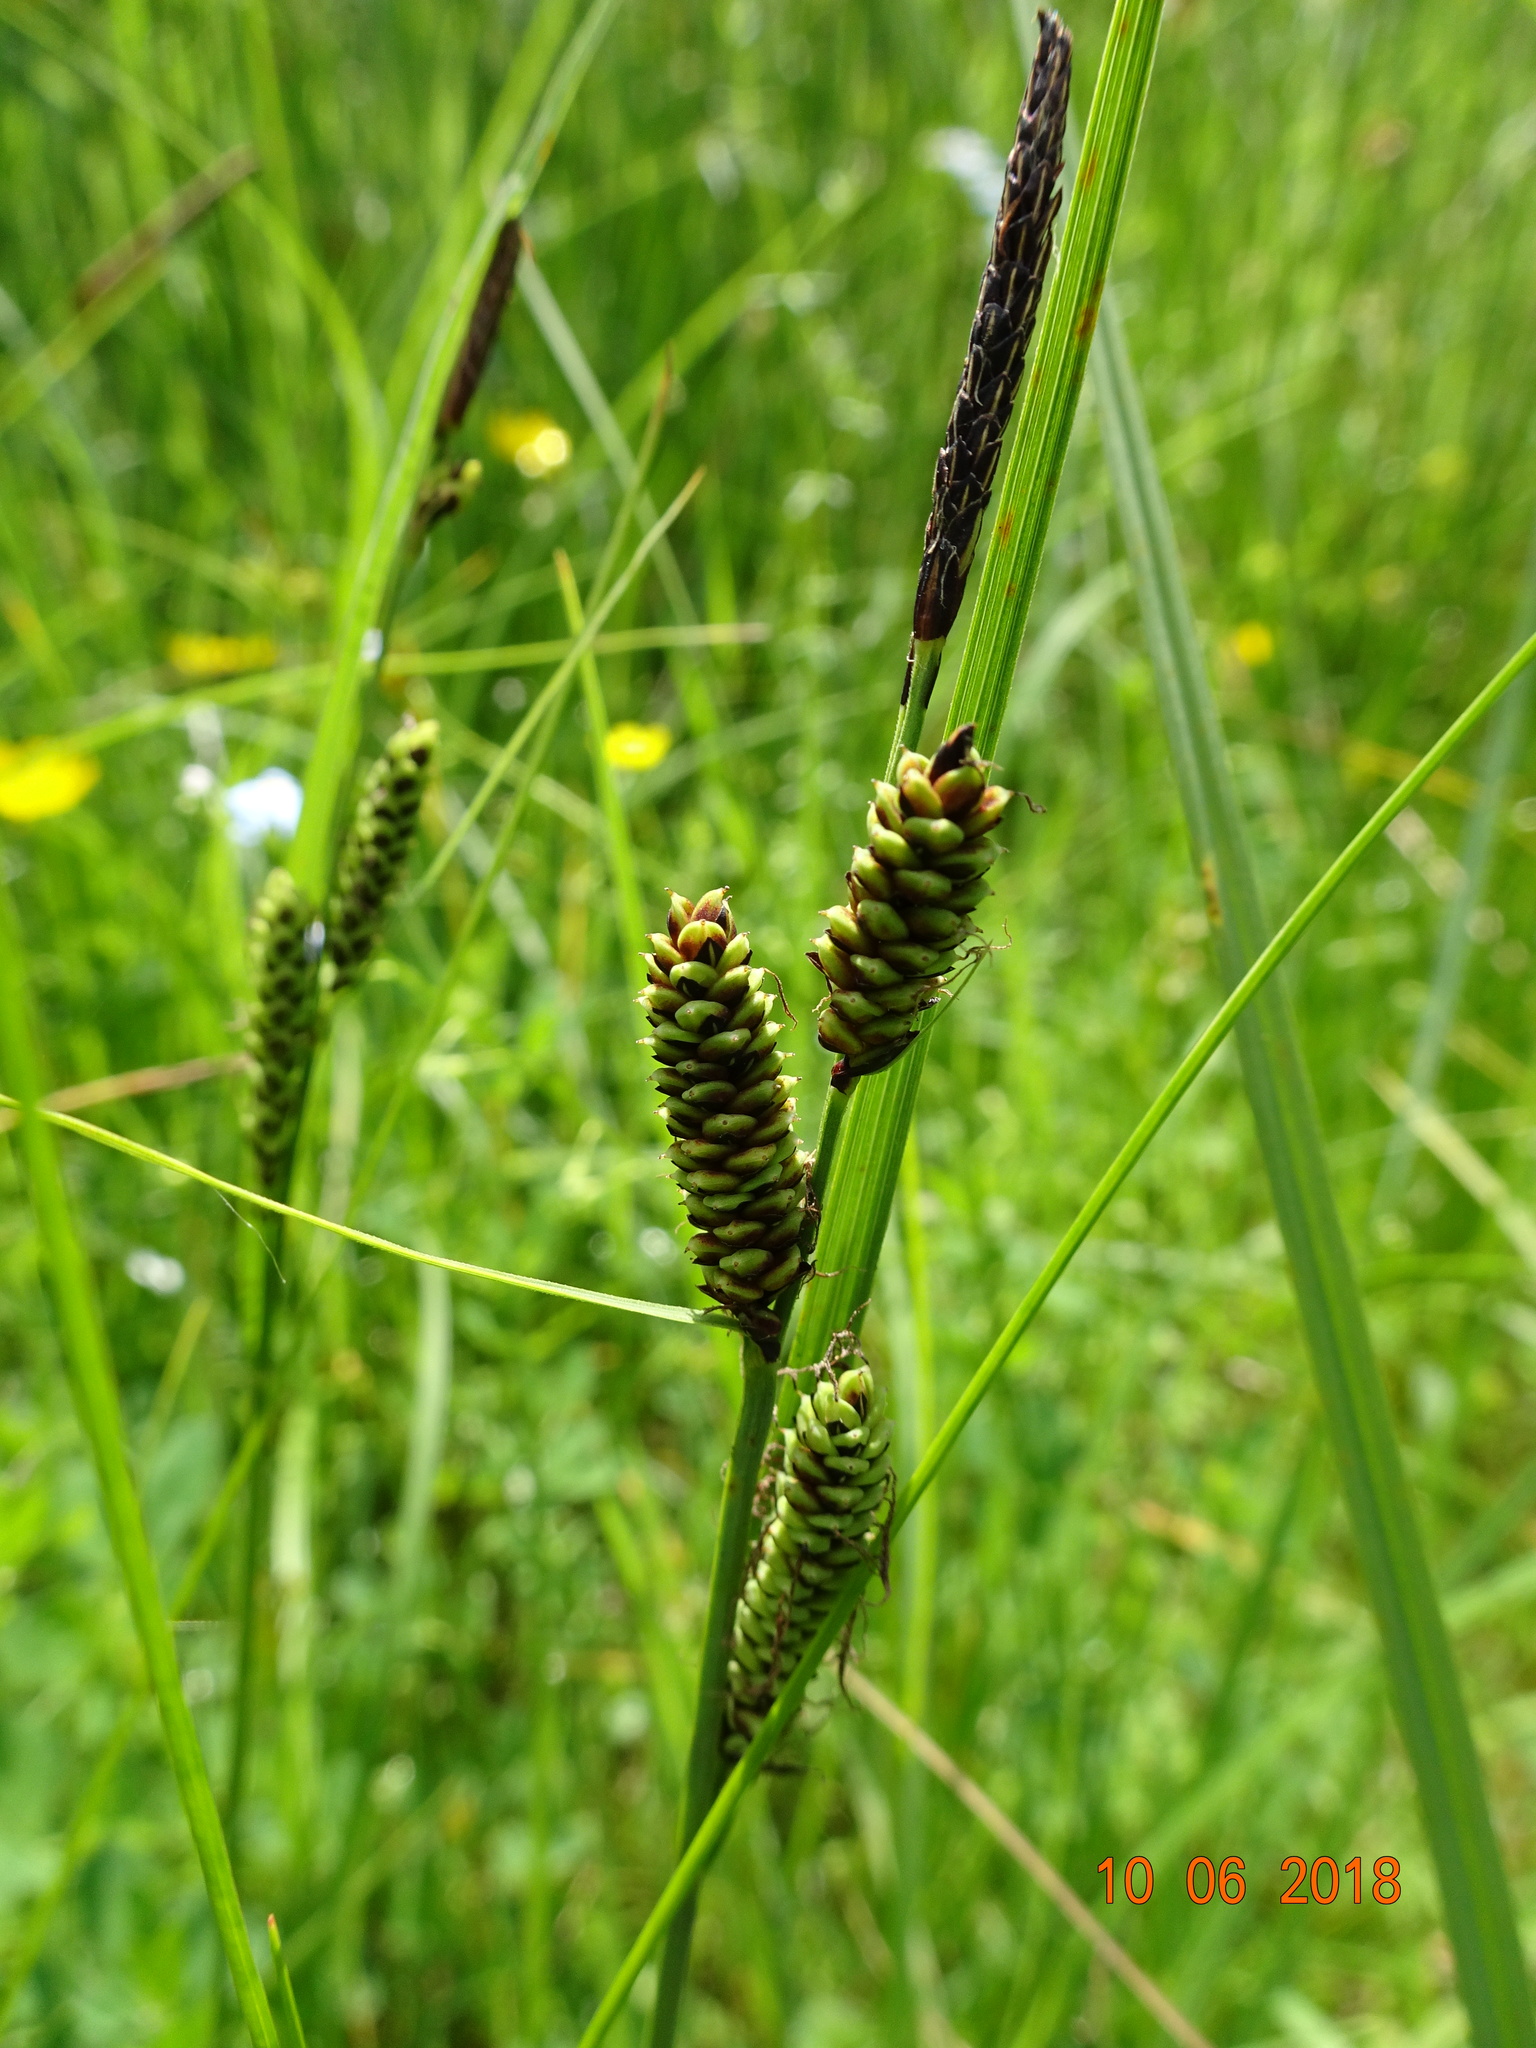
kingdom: Plantae
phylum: Tracheophyta
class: Liliopsida
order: Poales
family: Cyperaceae
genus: Carex
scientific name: Carex nigra
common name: Common sedge
